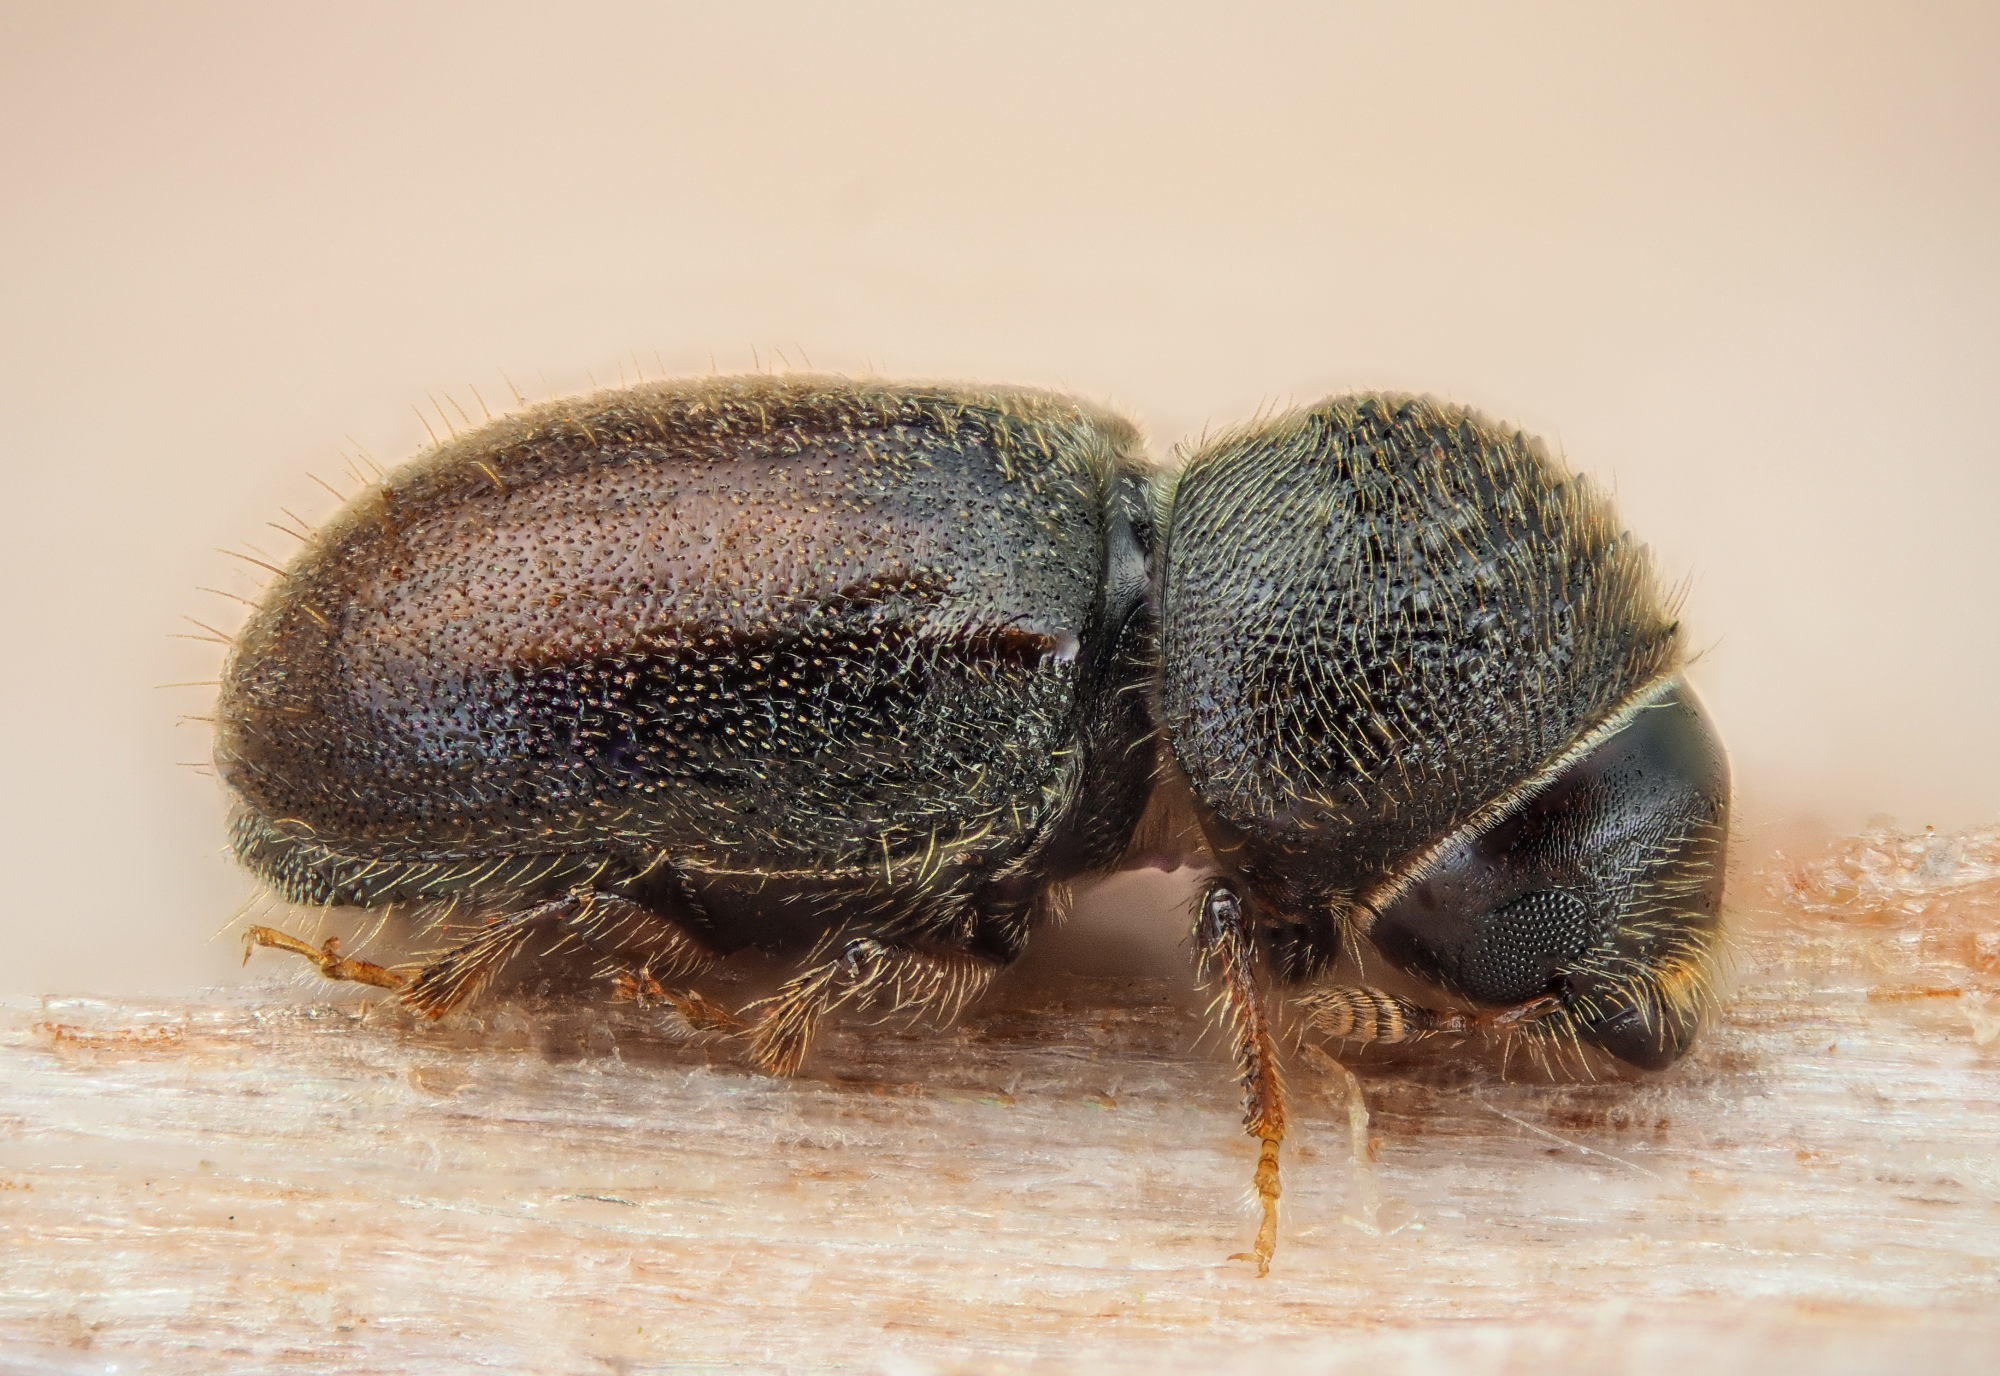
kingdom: Animalia
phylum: Arthropoda
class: Insecta
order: Coleoptera
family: Curculionidae
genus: Cryphalus
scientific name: Cryphalus piceae
